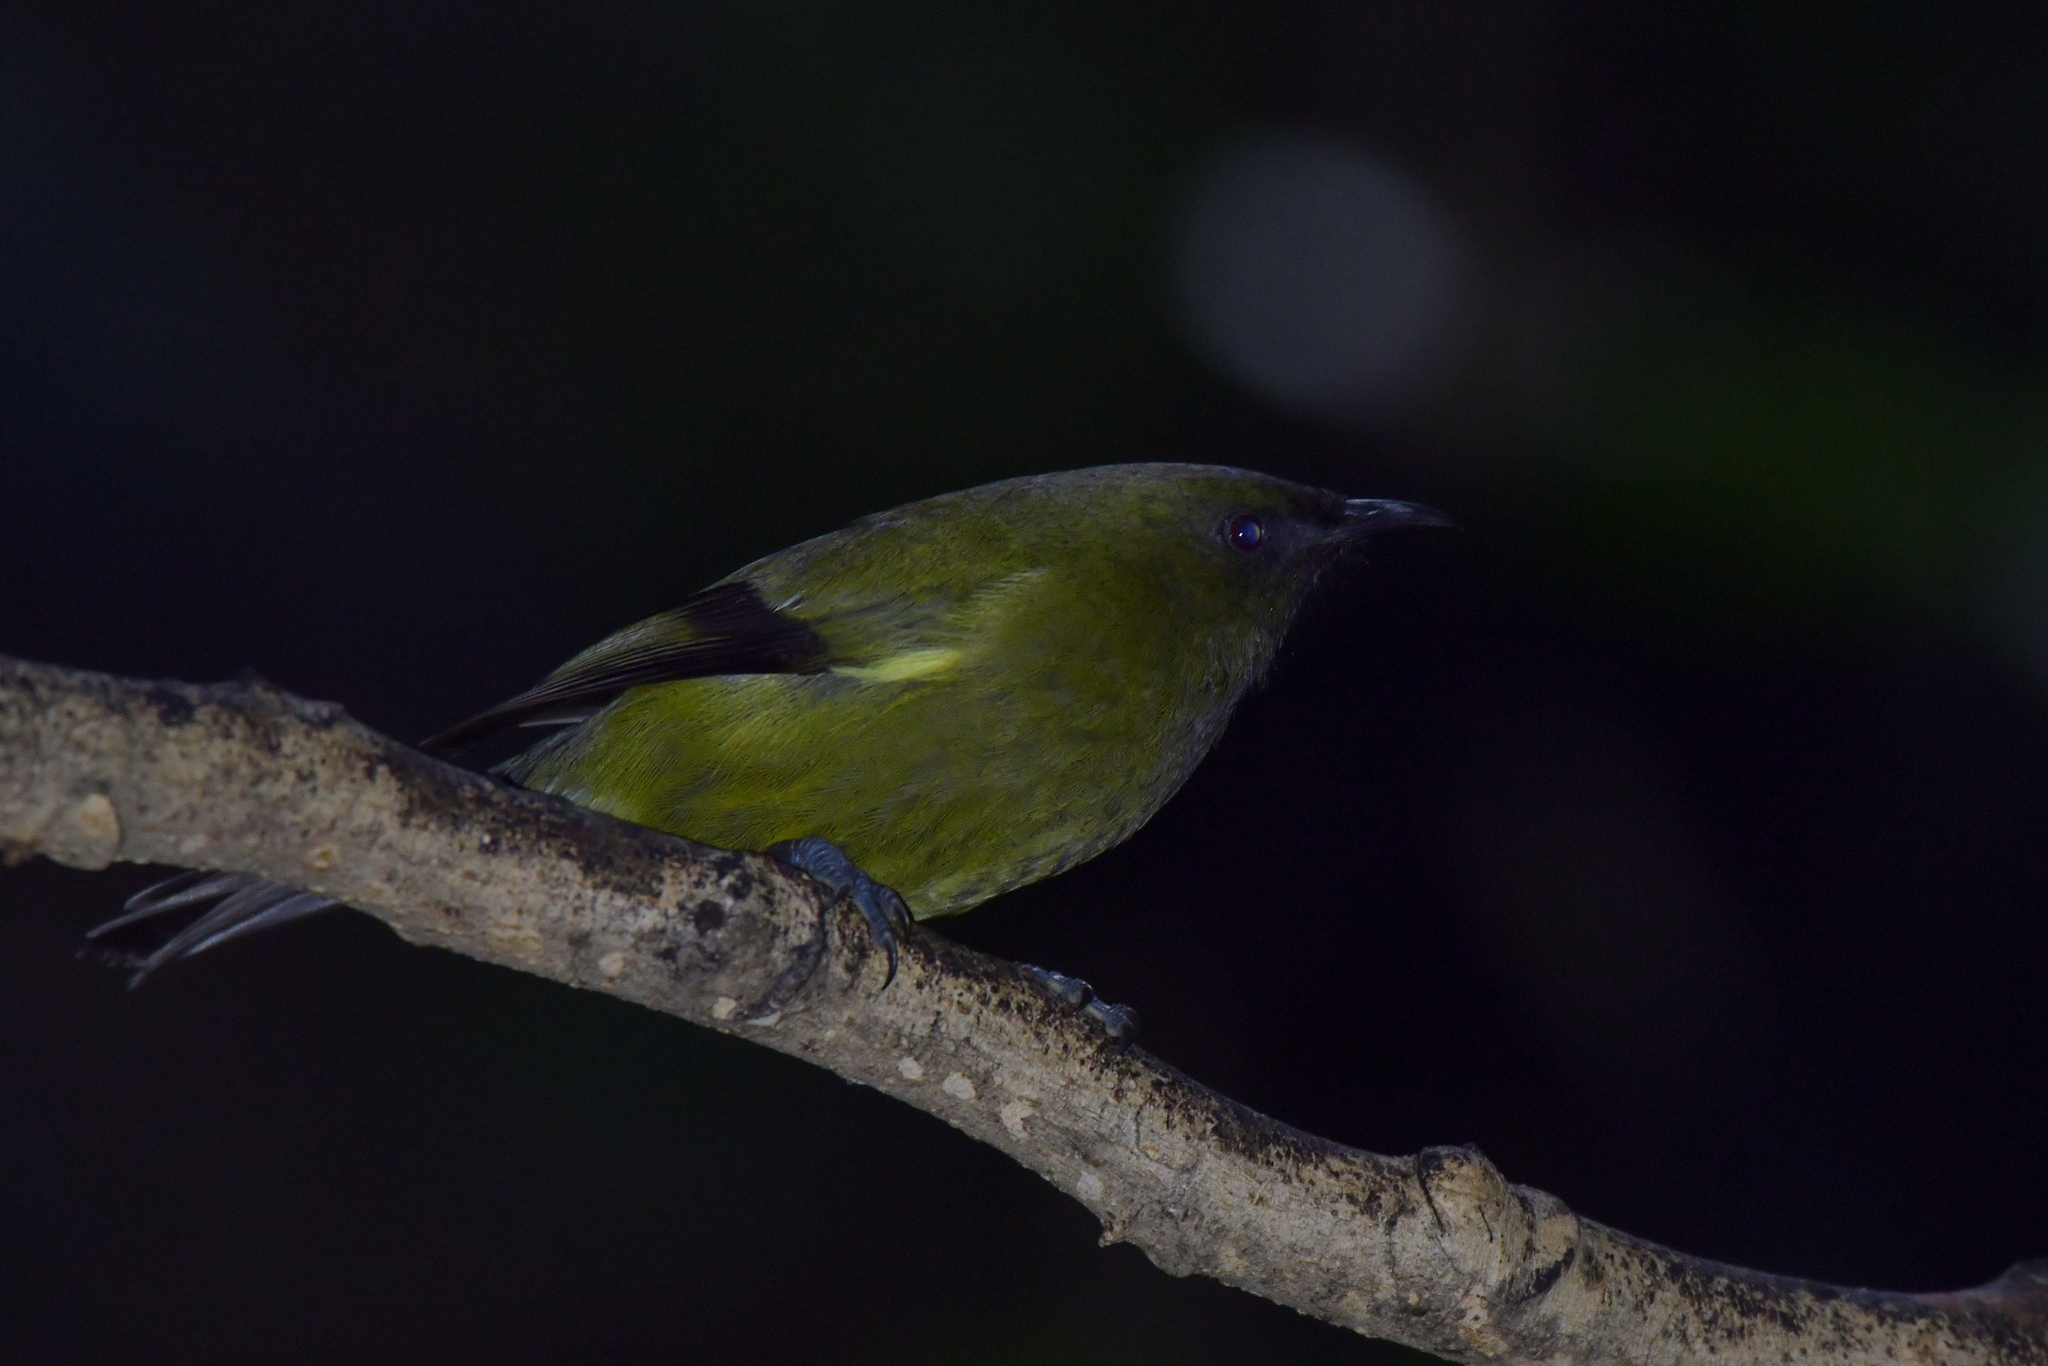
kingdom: Animalia
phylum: Chordata
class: Aves
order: Passeriformes
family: Meliphagidae
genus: Anthornis
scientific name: Anthornis melanura
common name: New zealand bellbird
